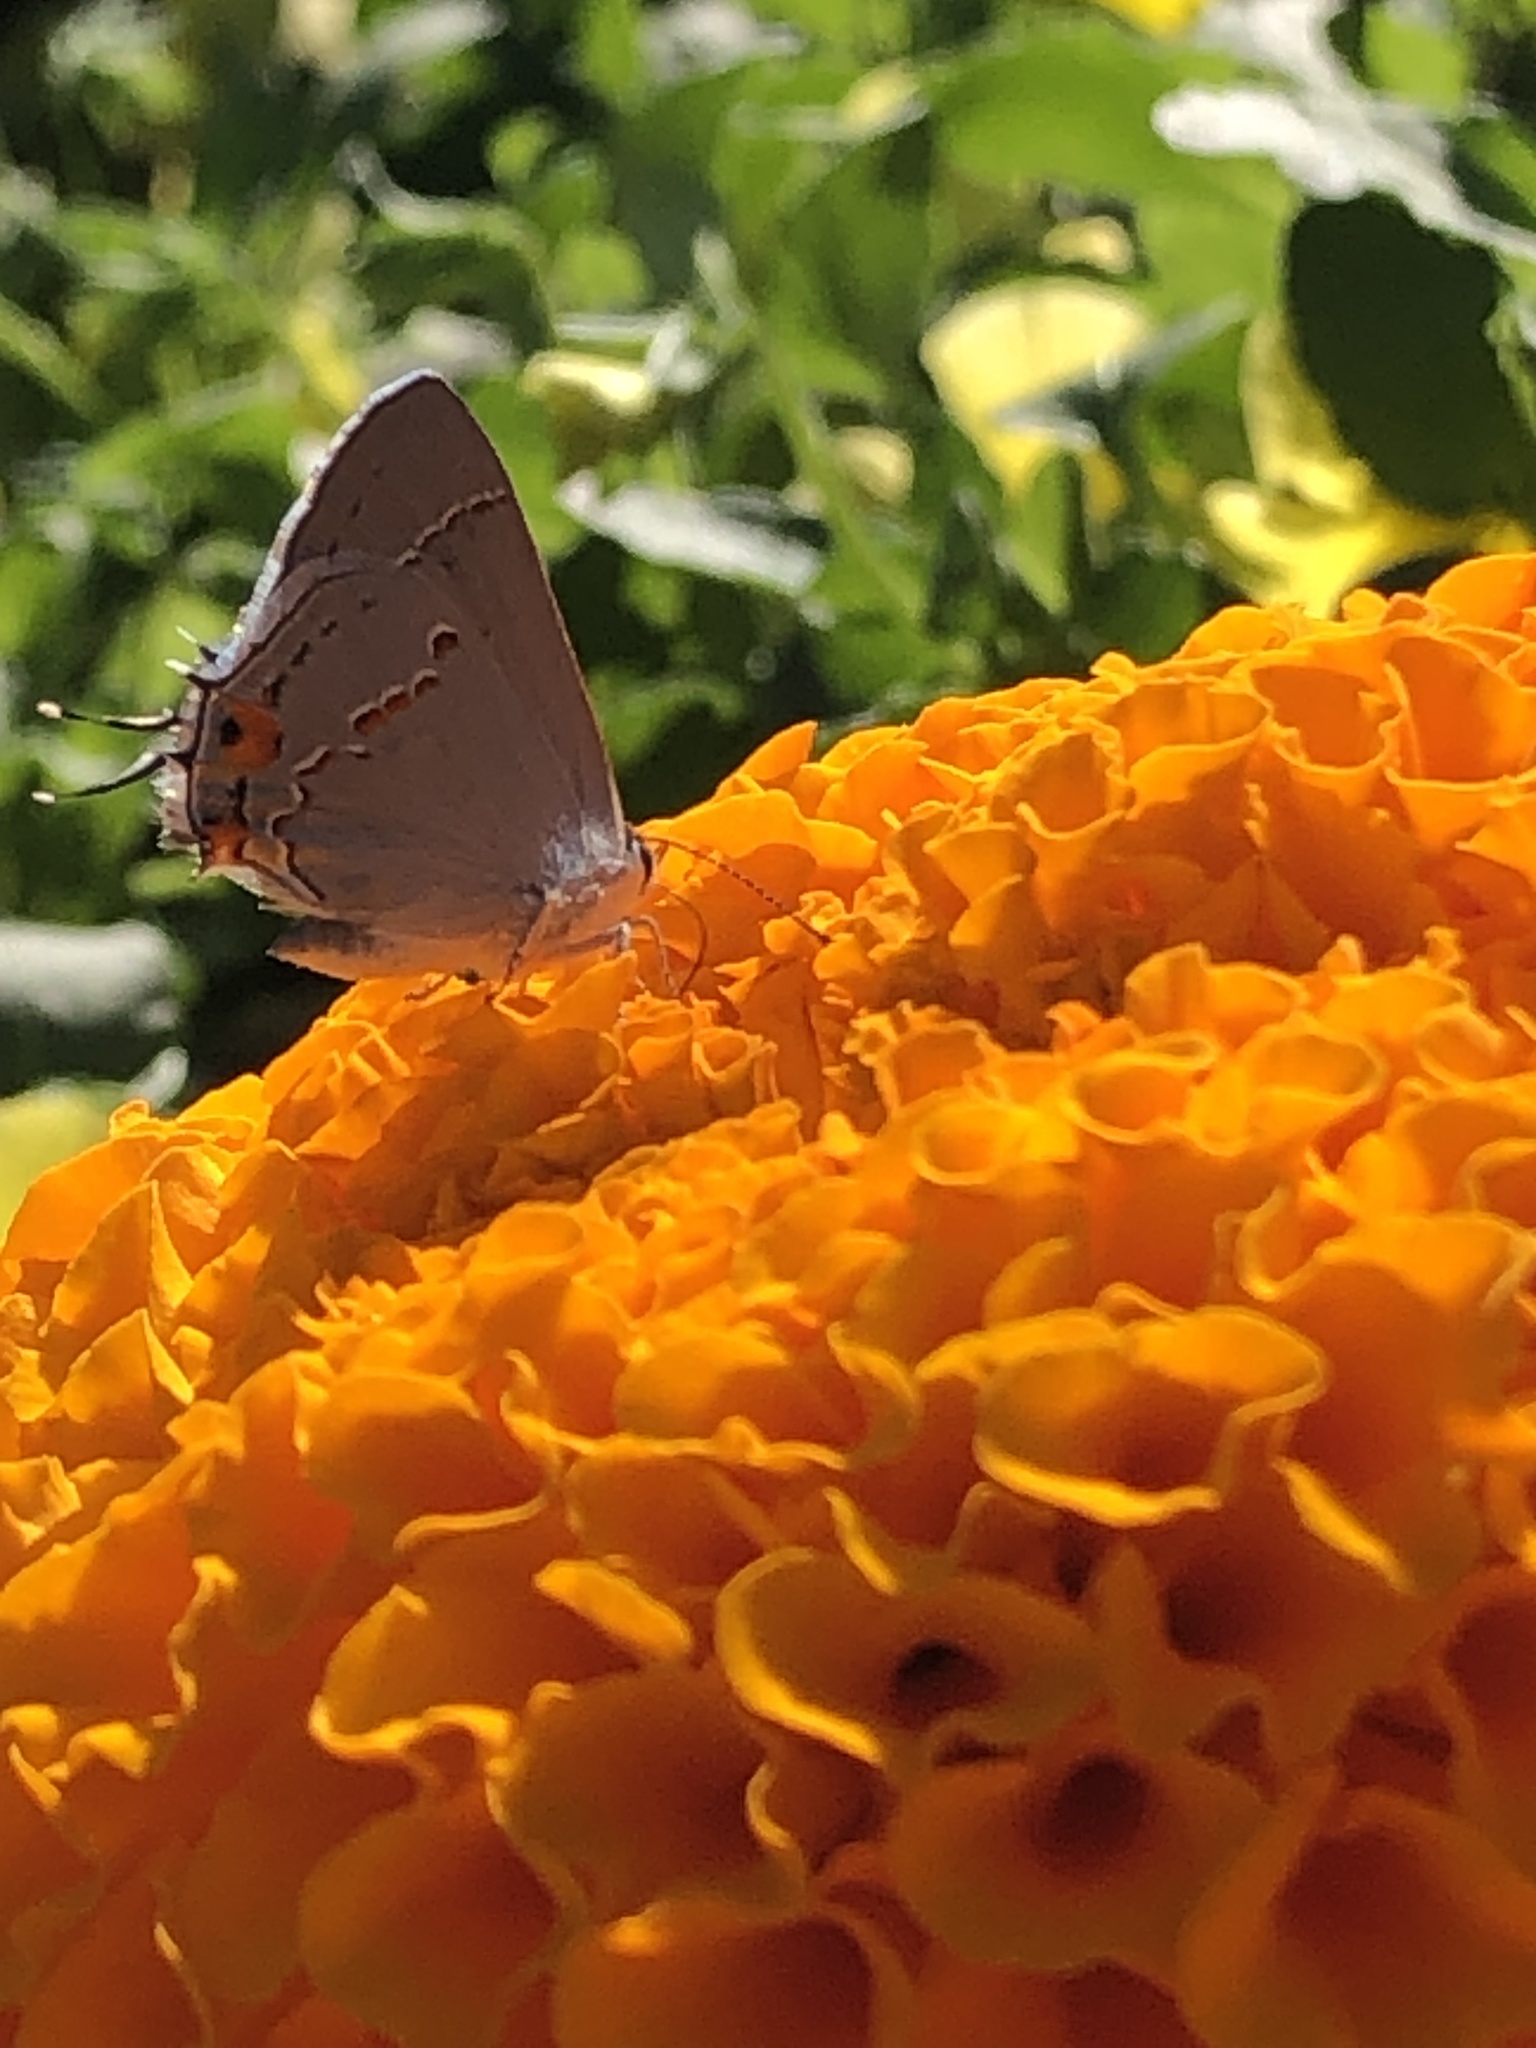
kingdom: Animalia
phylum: Arthropoda
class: Insecta
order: Lepidoptera
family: Lycaenidae
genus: Strymon
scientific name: Strymon melinus
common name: Gray hairstreak
